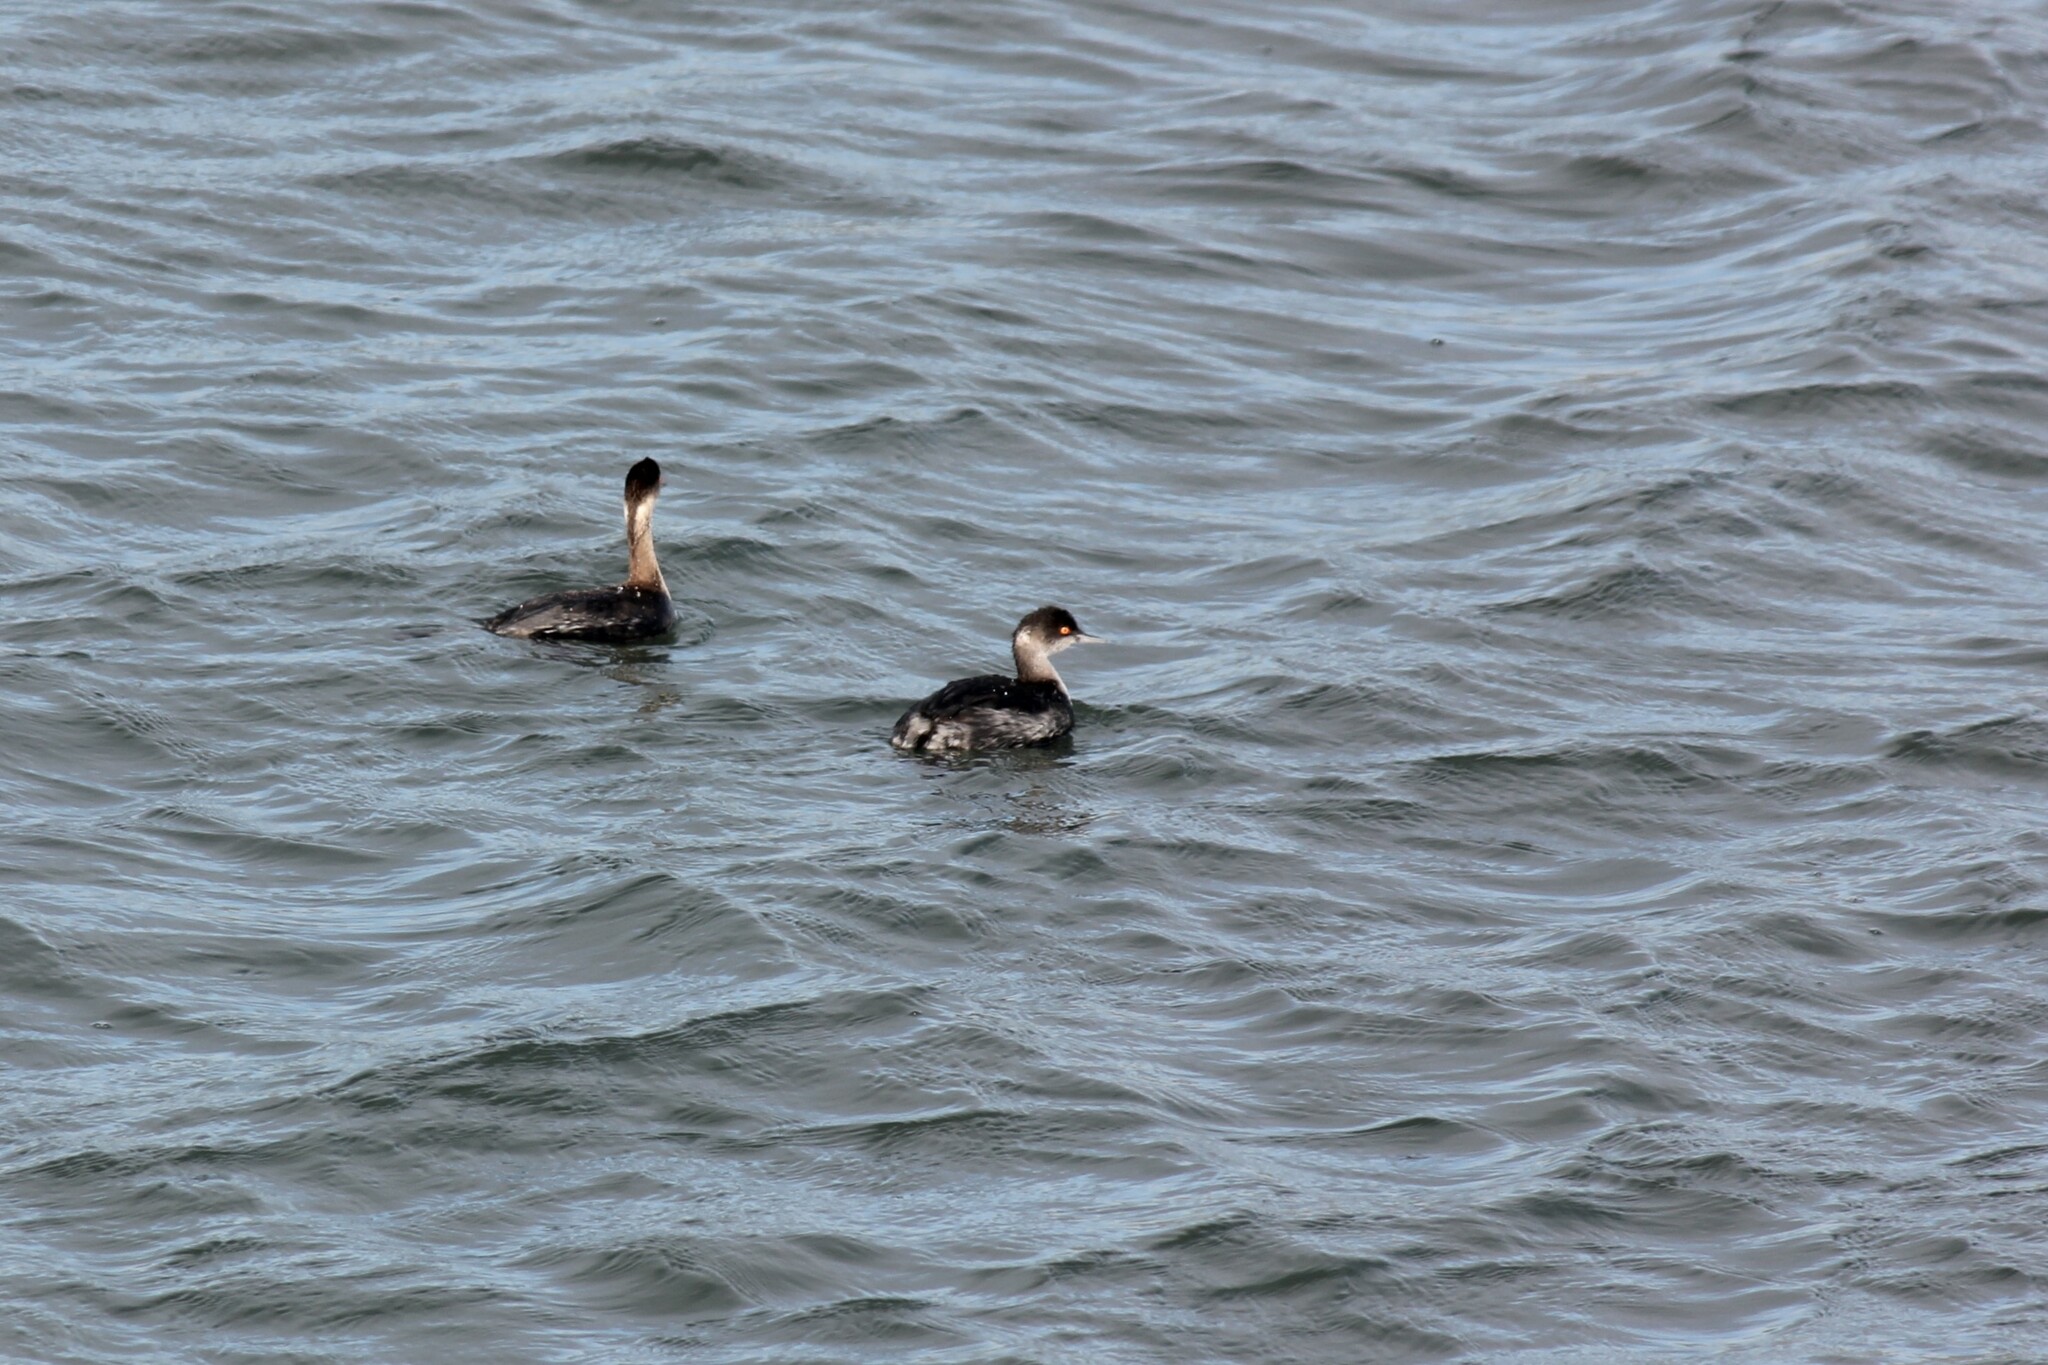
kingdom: Animalia
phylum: Chordata
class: Aves
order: Podicipediformes
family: Podicipedidae
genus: Podiceps
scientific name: Podiceps nigricollis
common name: Black-necked grebe
